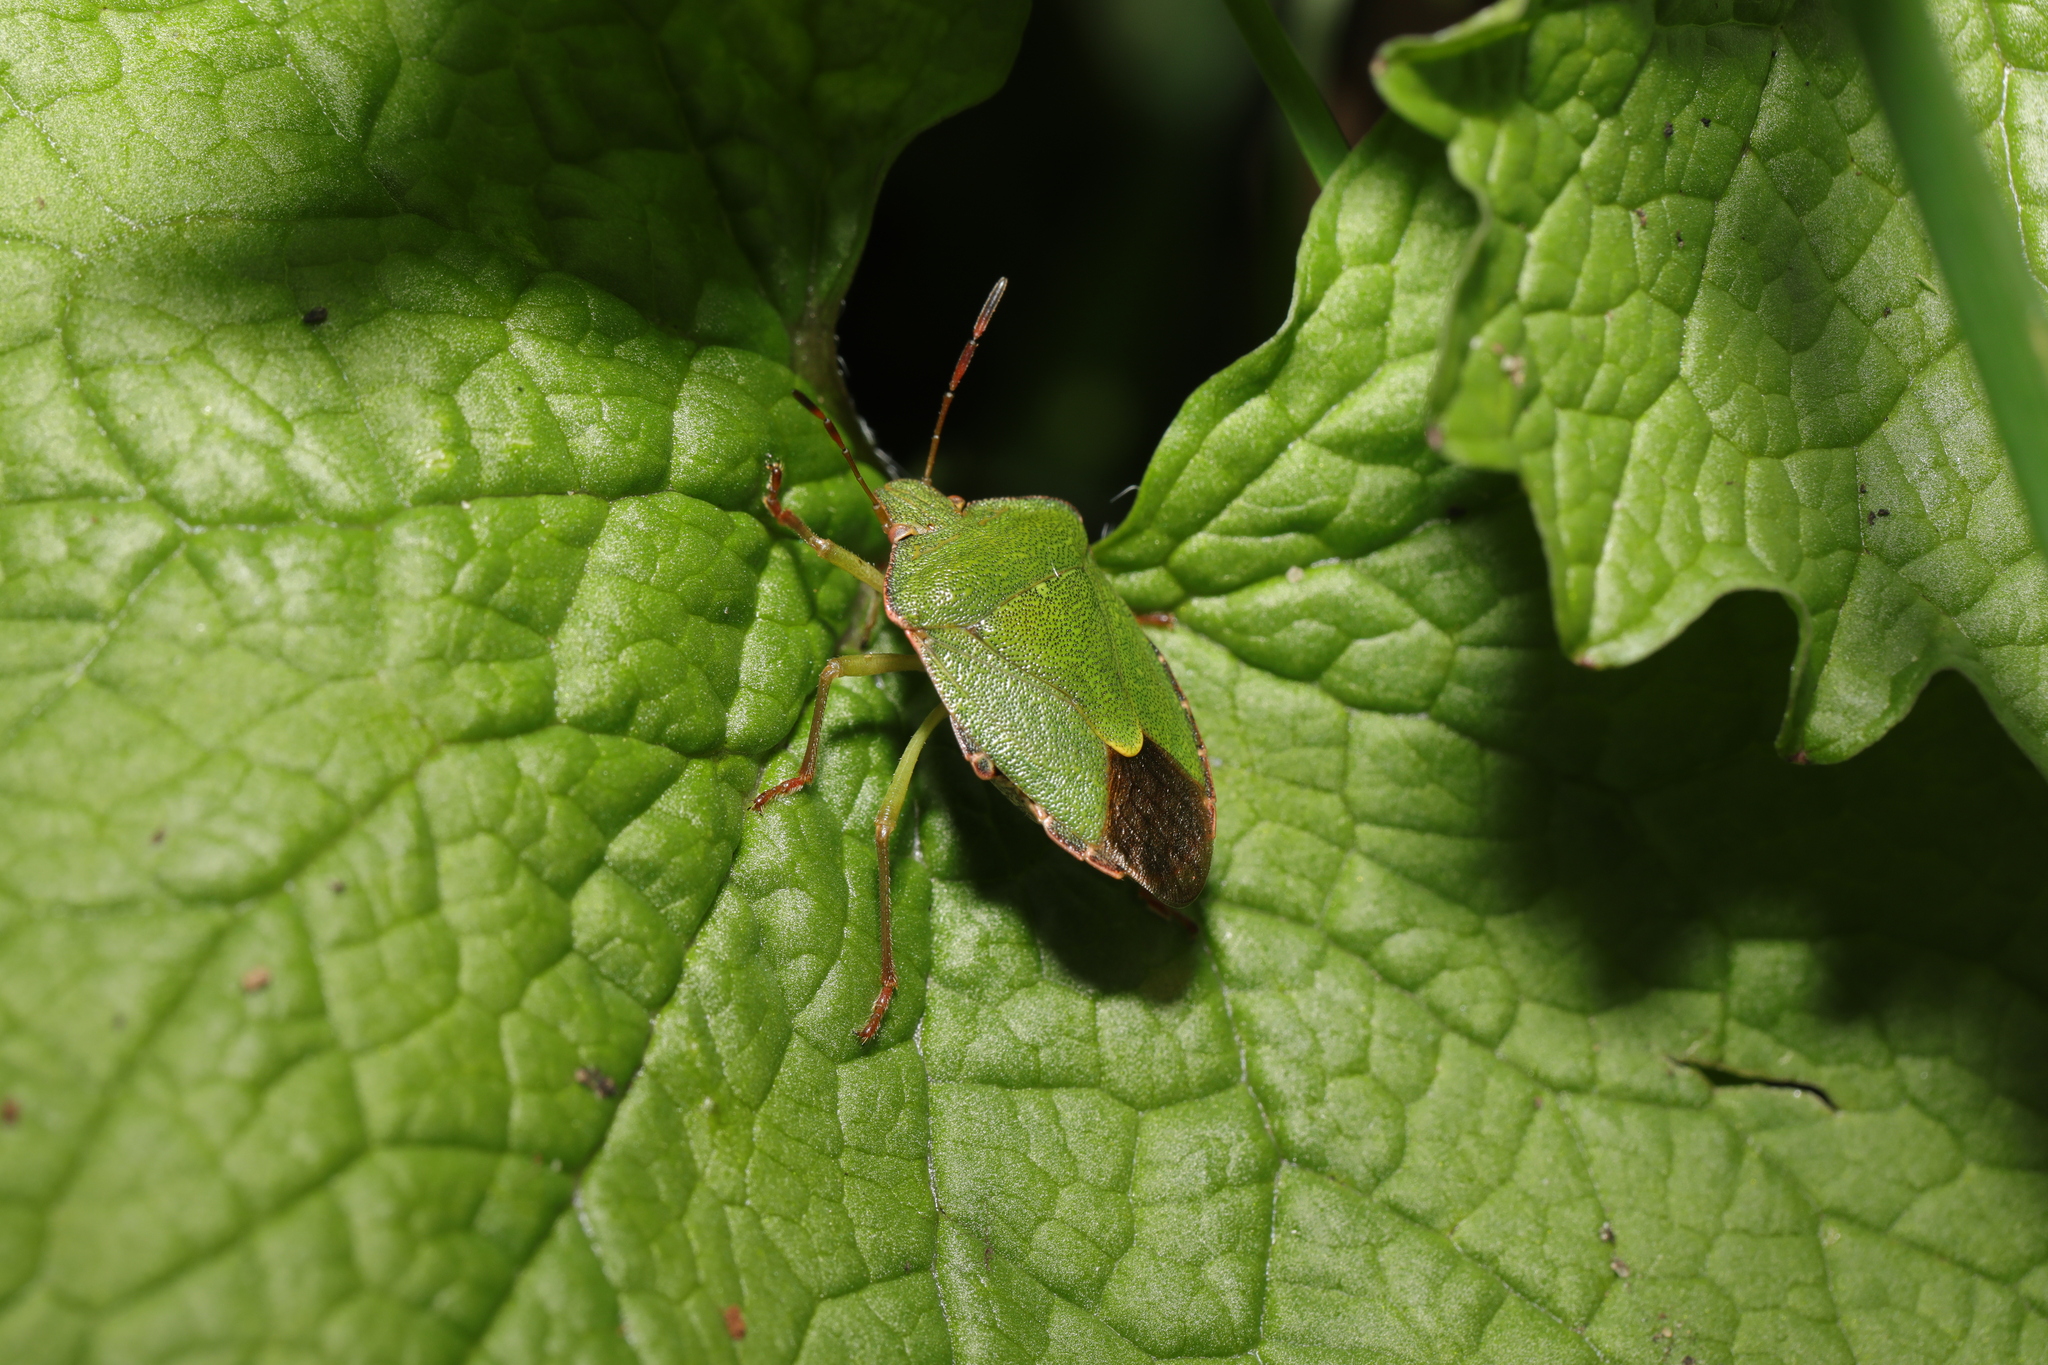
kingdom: Animalia
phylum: Arthropoda
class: Insecta
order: Hemiptera
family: Pentatomidae
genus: Palomena
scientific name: Palomena prasina
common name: Green shieldbug
